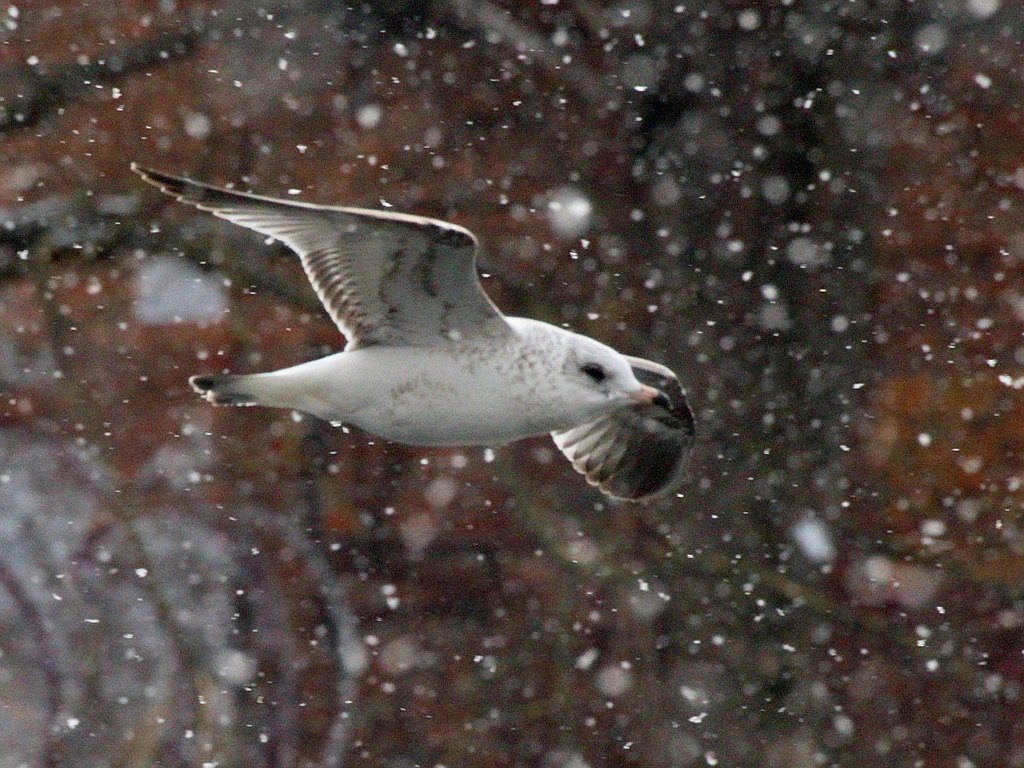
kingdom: Animalia
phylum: Chordata
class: Aves
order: Charadriiformes
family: Laridae
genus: Larus
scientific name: Larus canus
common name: Mew gull
